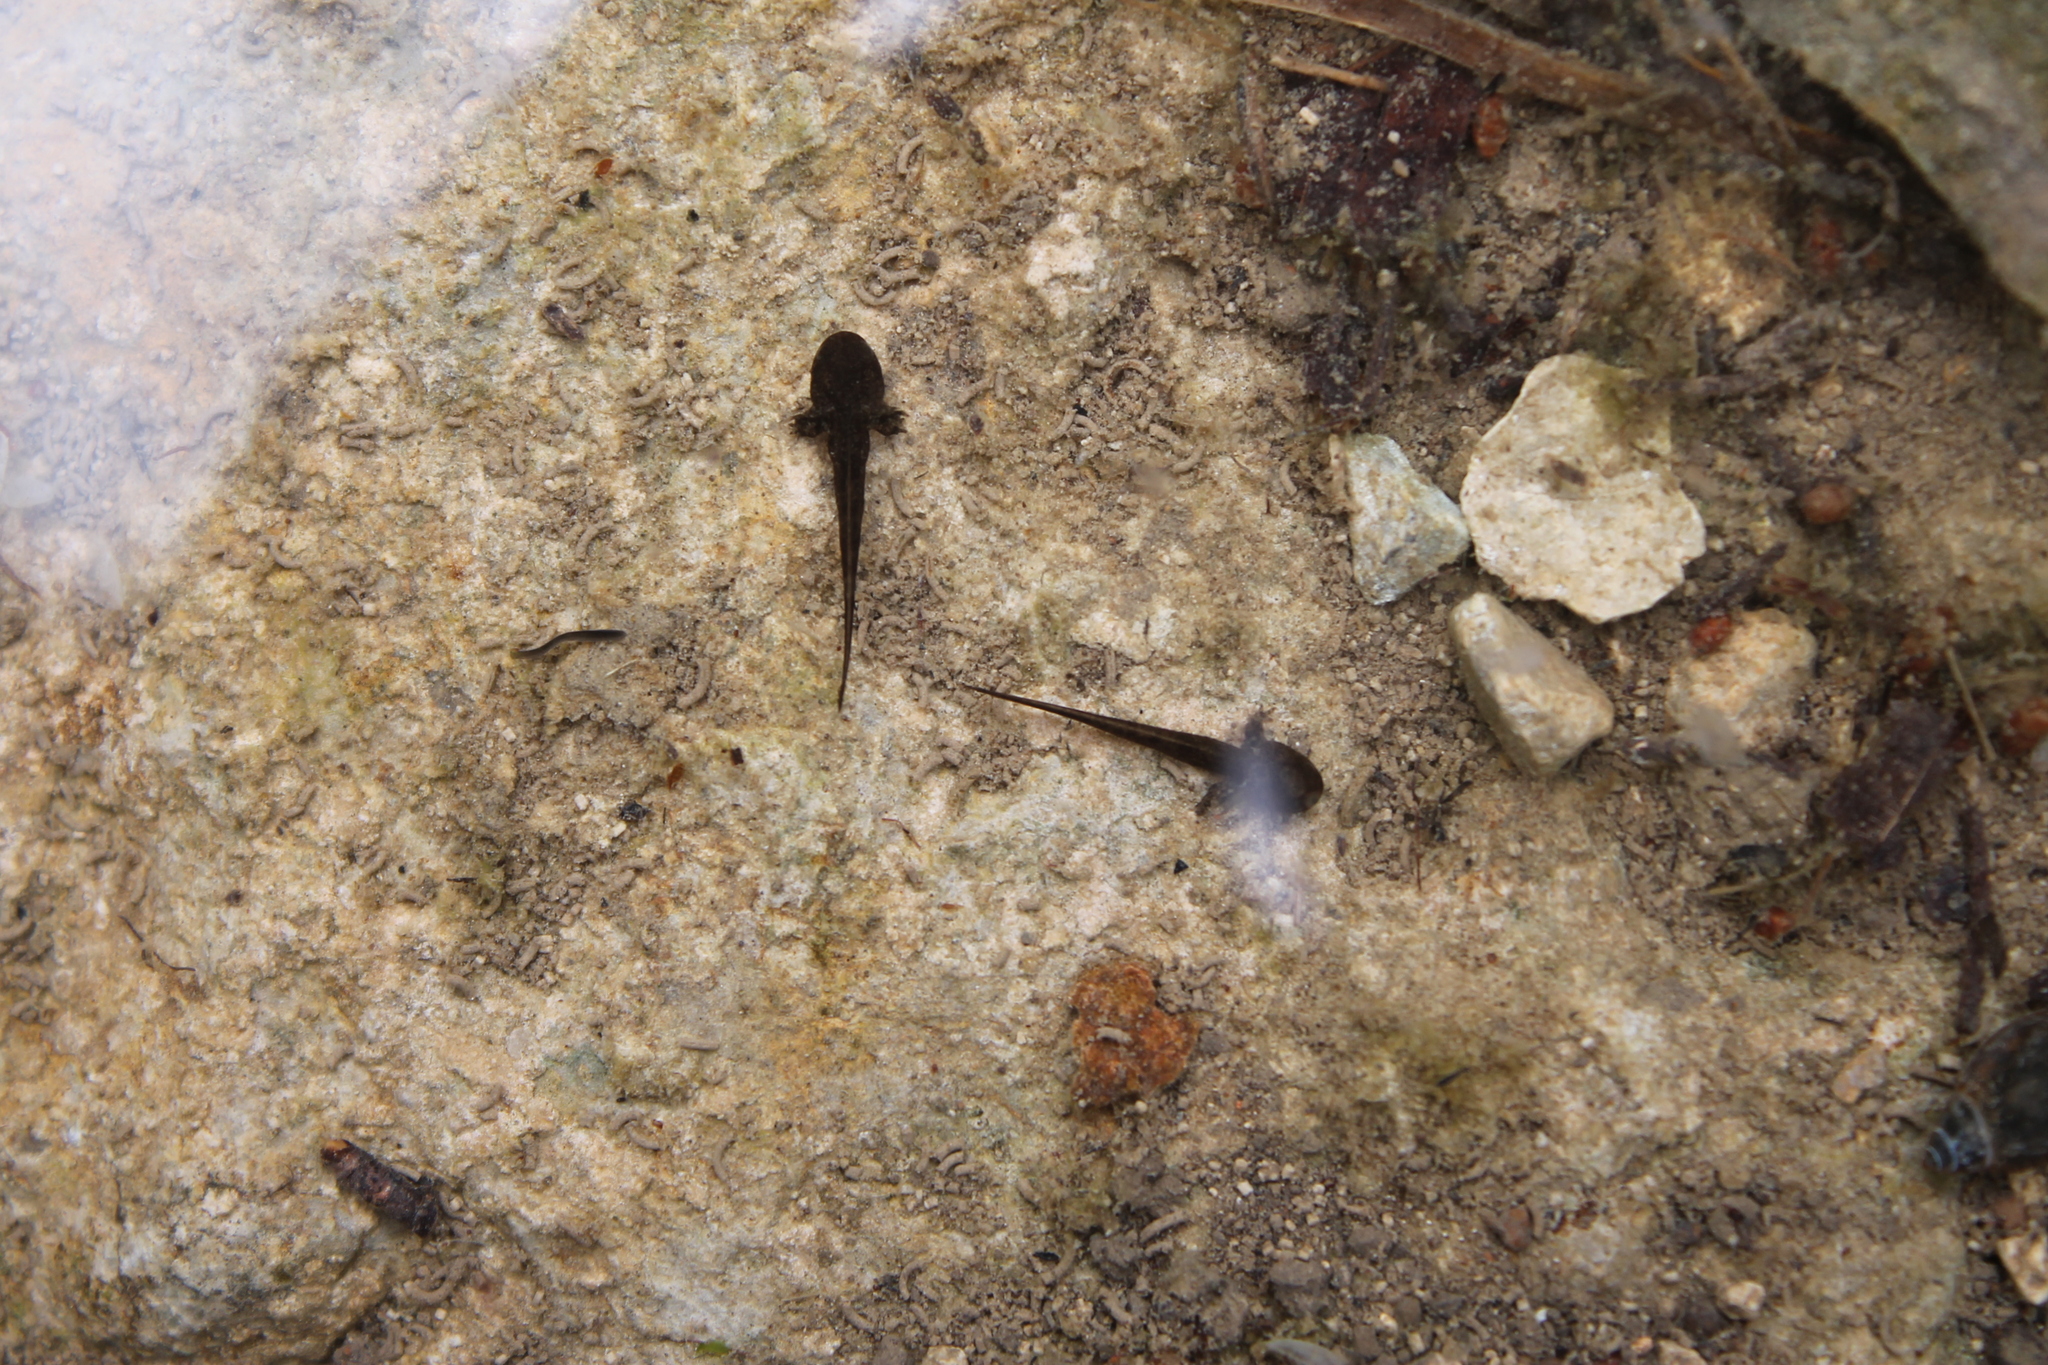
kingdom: Animalia
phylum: Chordata
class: Amphibia
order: Caudata
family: Ambystomatidae
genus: Ambystoma
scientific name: Ambystoma barbouri
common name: Streamside salamander
